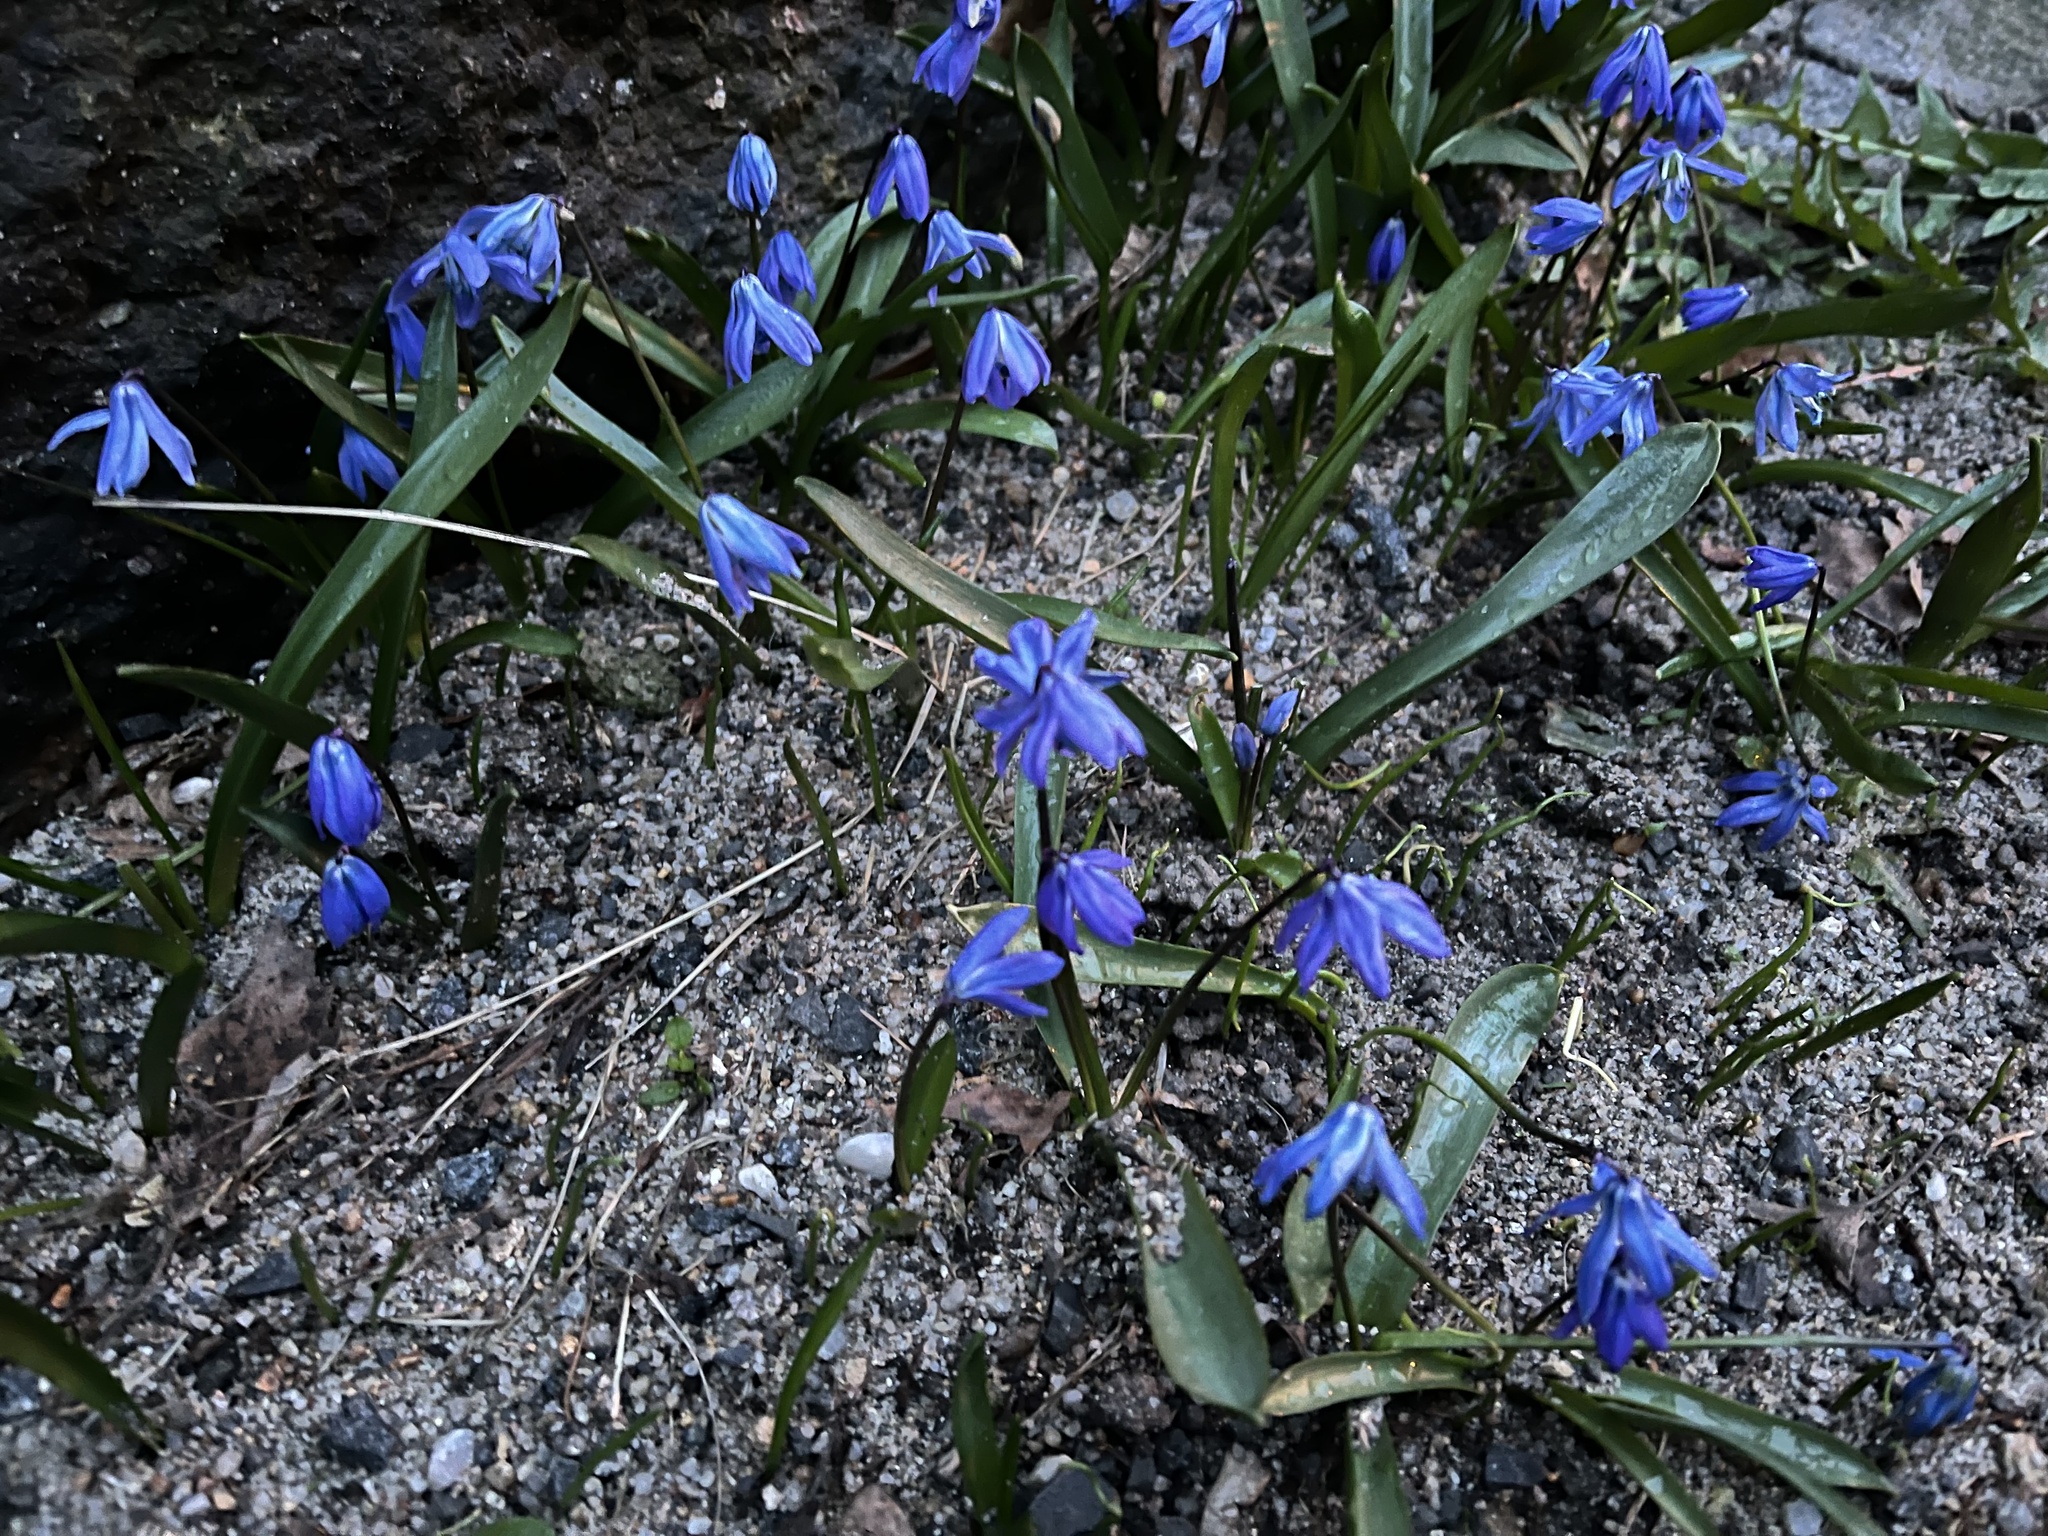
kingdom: Plantae
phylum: Tracheophyta
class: Liliopsida
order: Asparagales
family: Asparagaceae
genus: Scilla
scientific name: Scilla siberica
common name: Siberian squill
